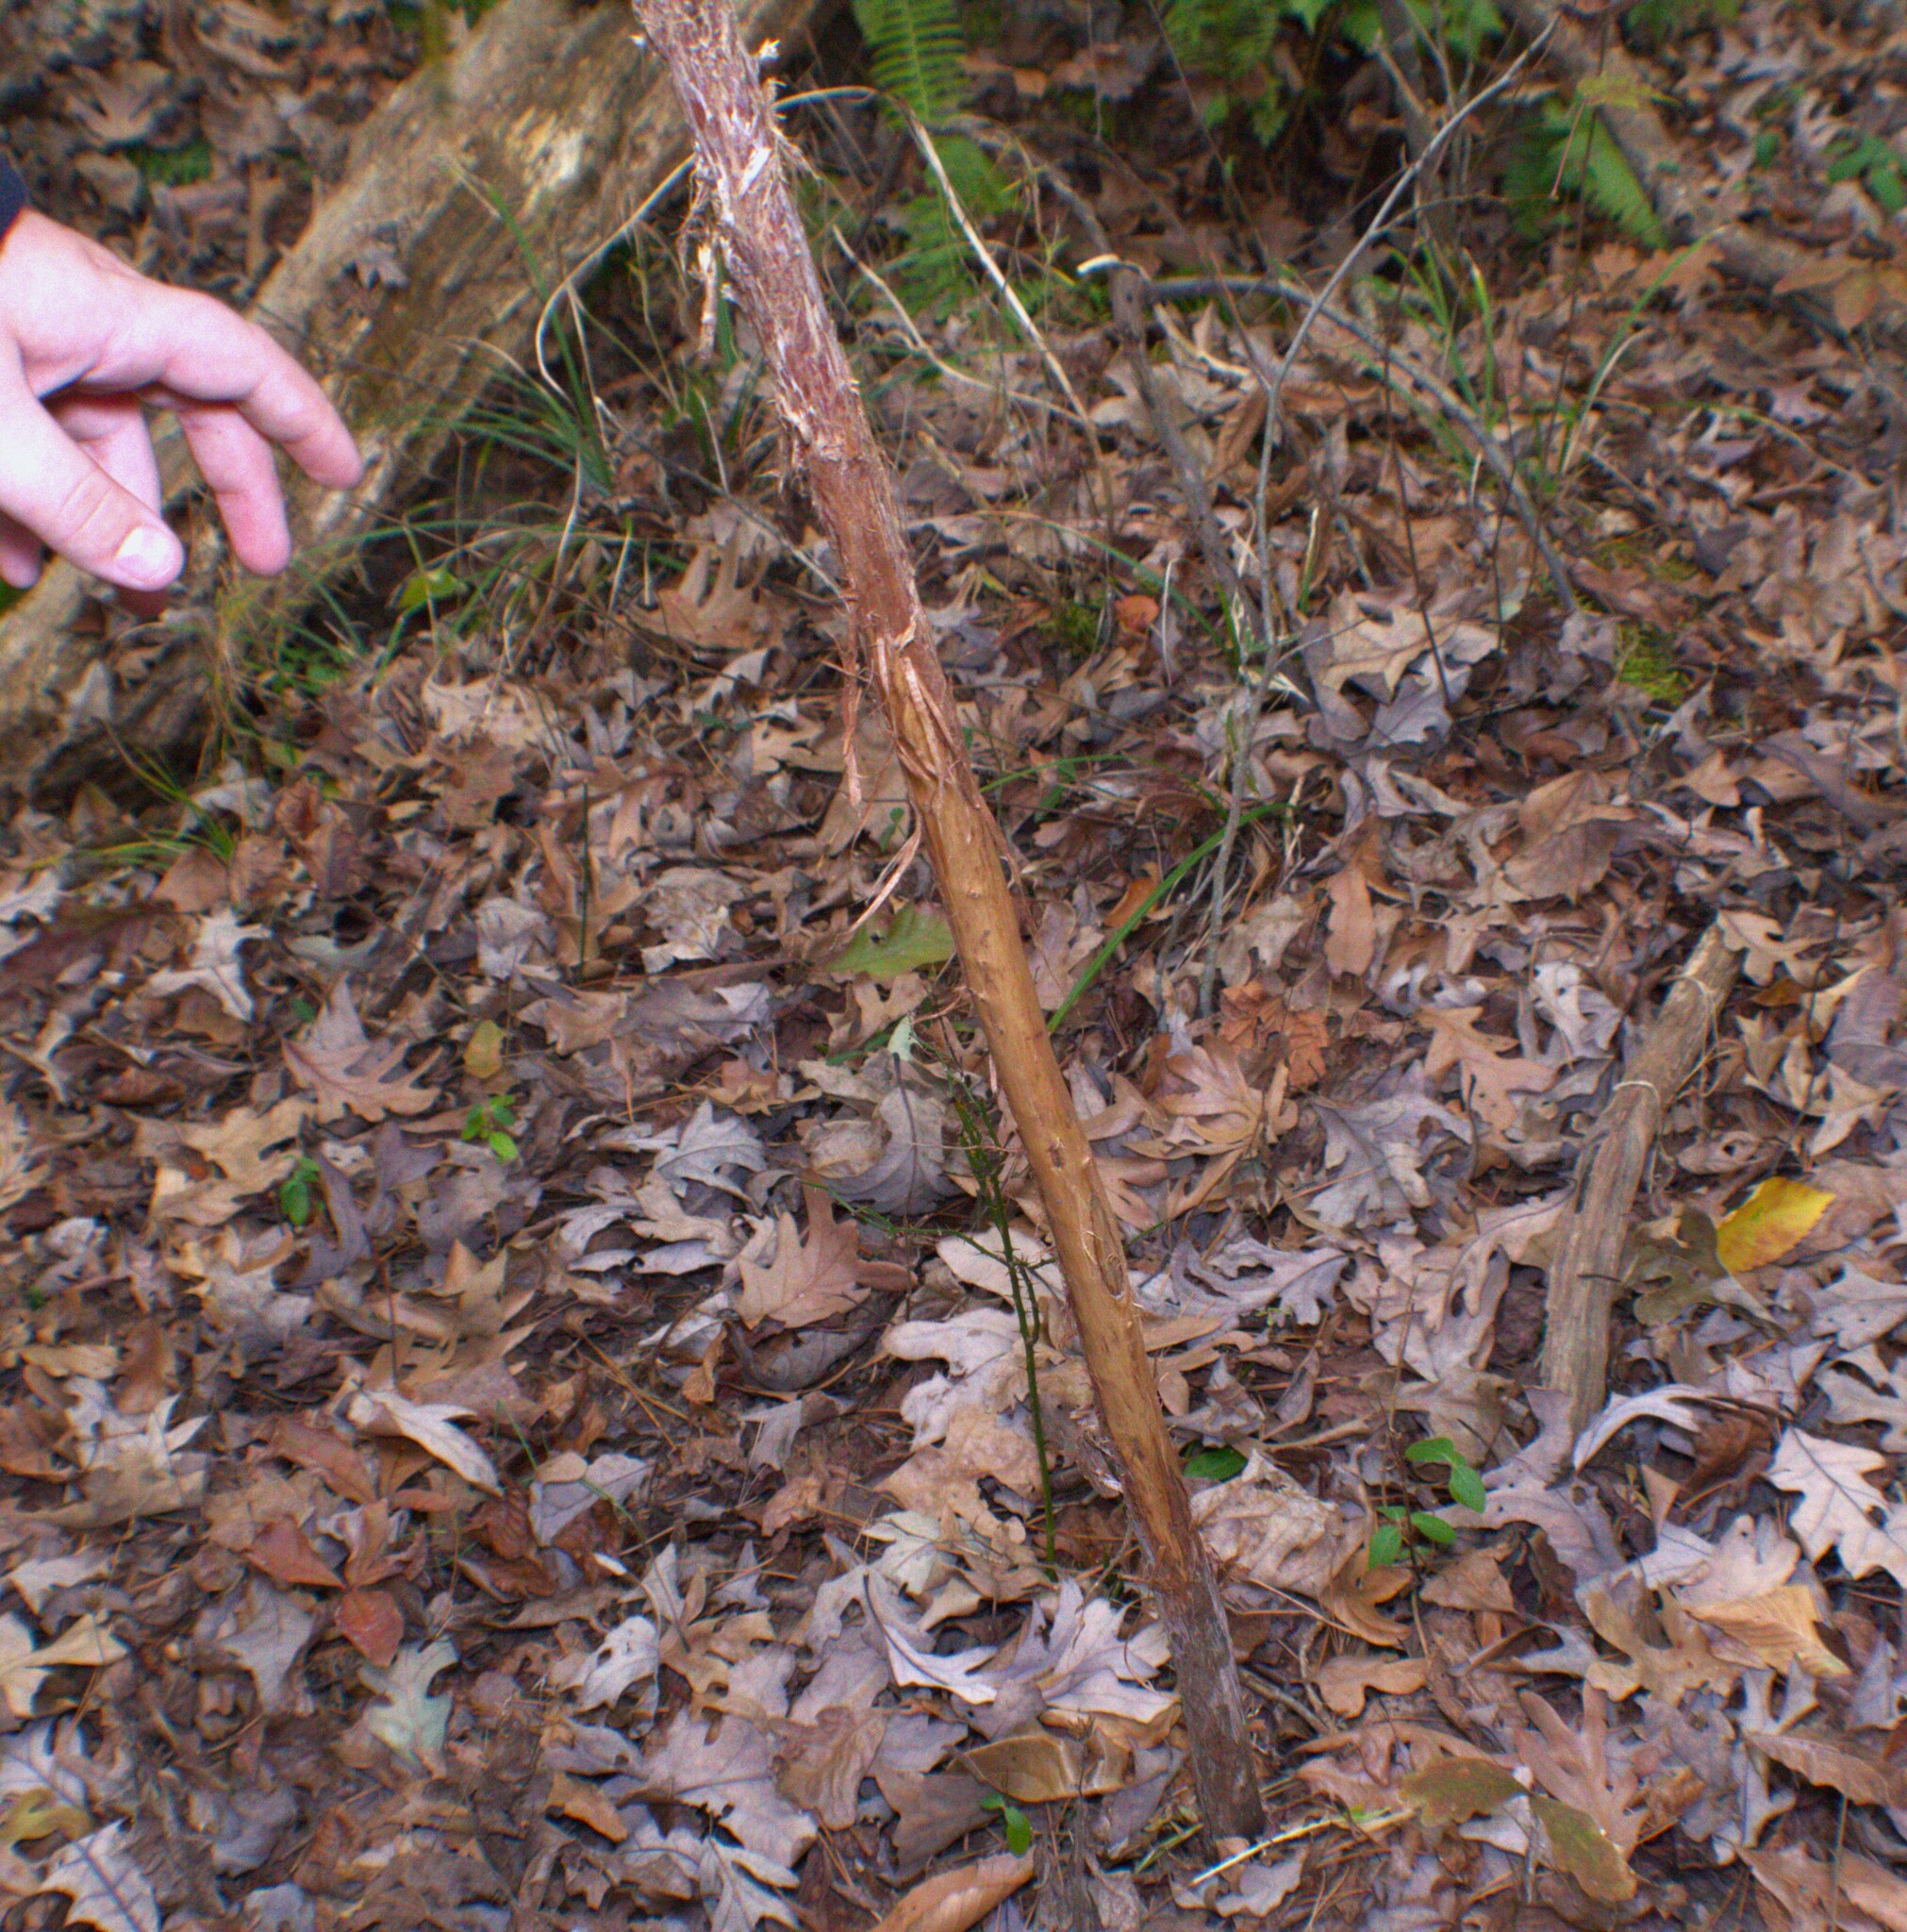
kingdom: Animalia
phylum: Chordata
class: Mammalia
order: Artiodactyla
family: Cervidae
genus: Odocoileus
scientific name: Odocoileus virginianus
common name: White-tailed deer
